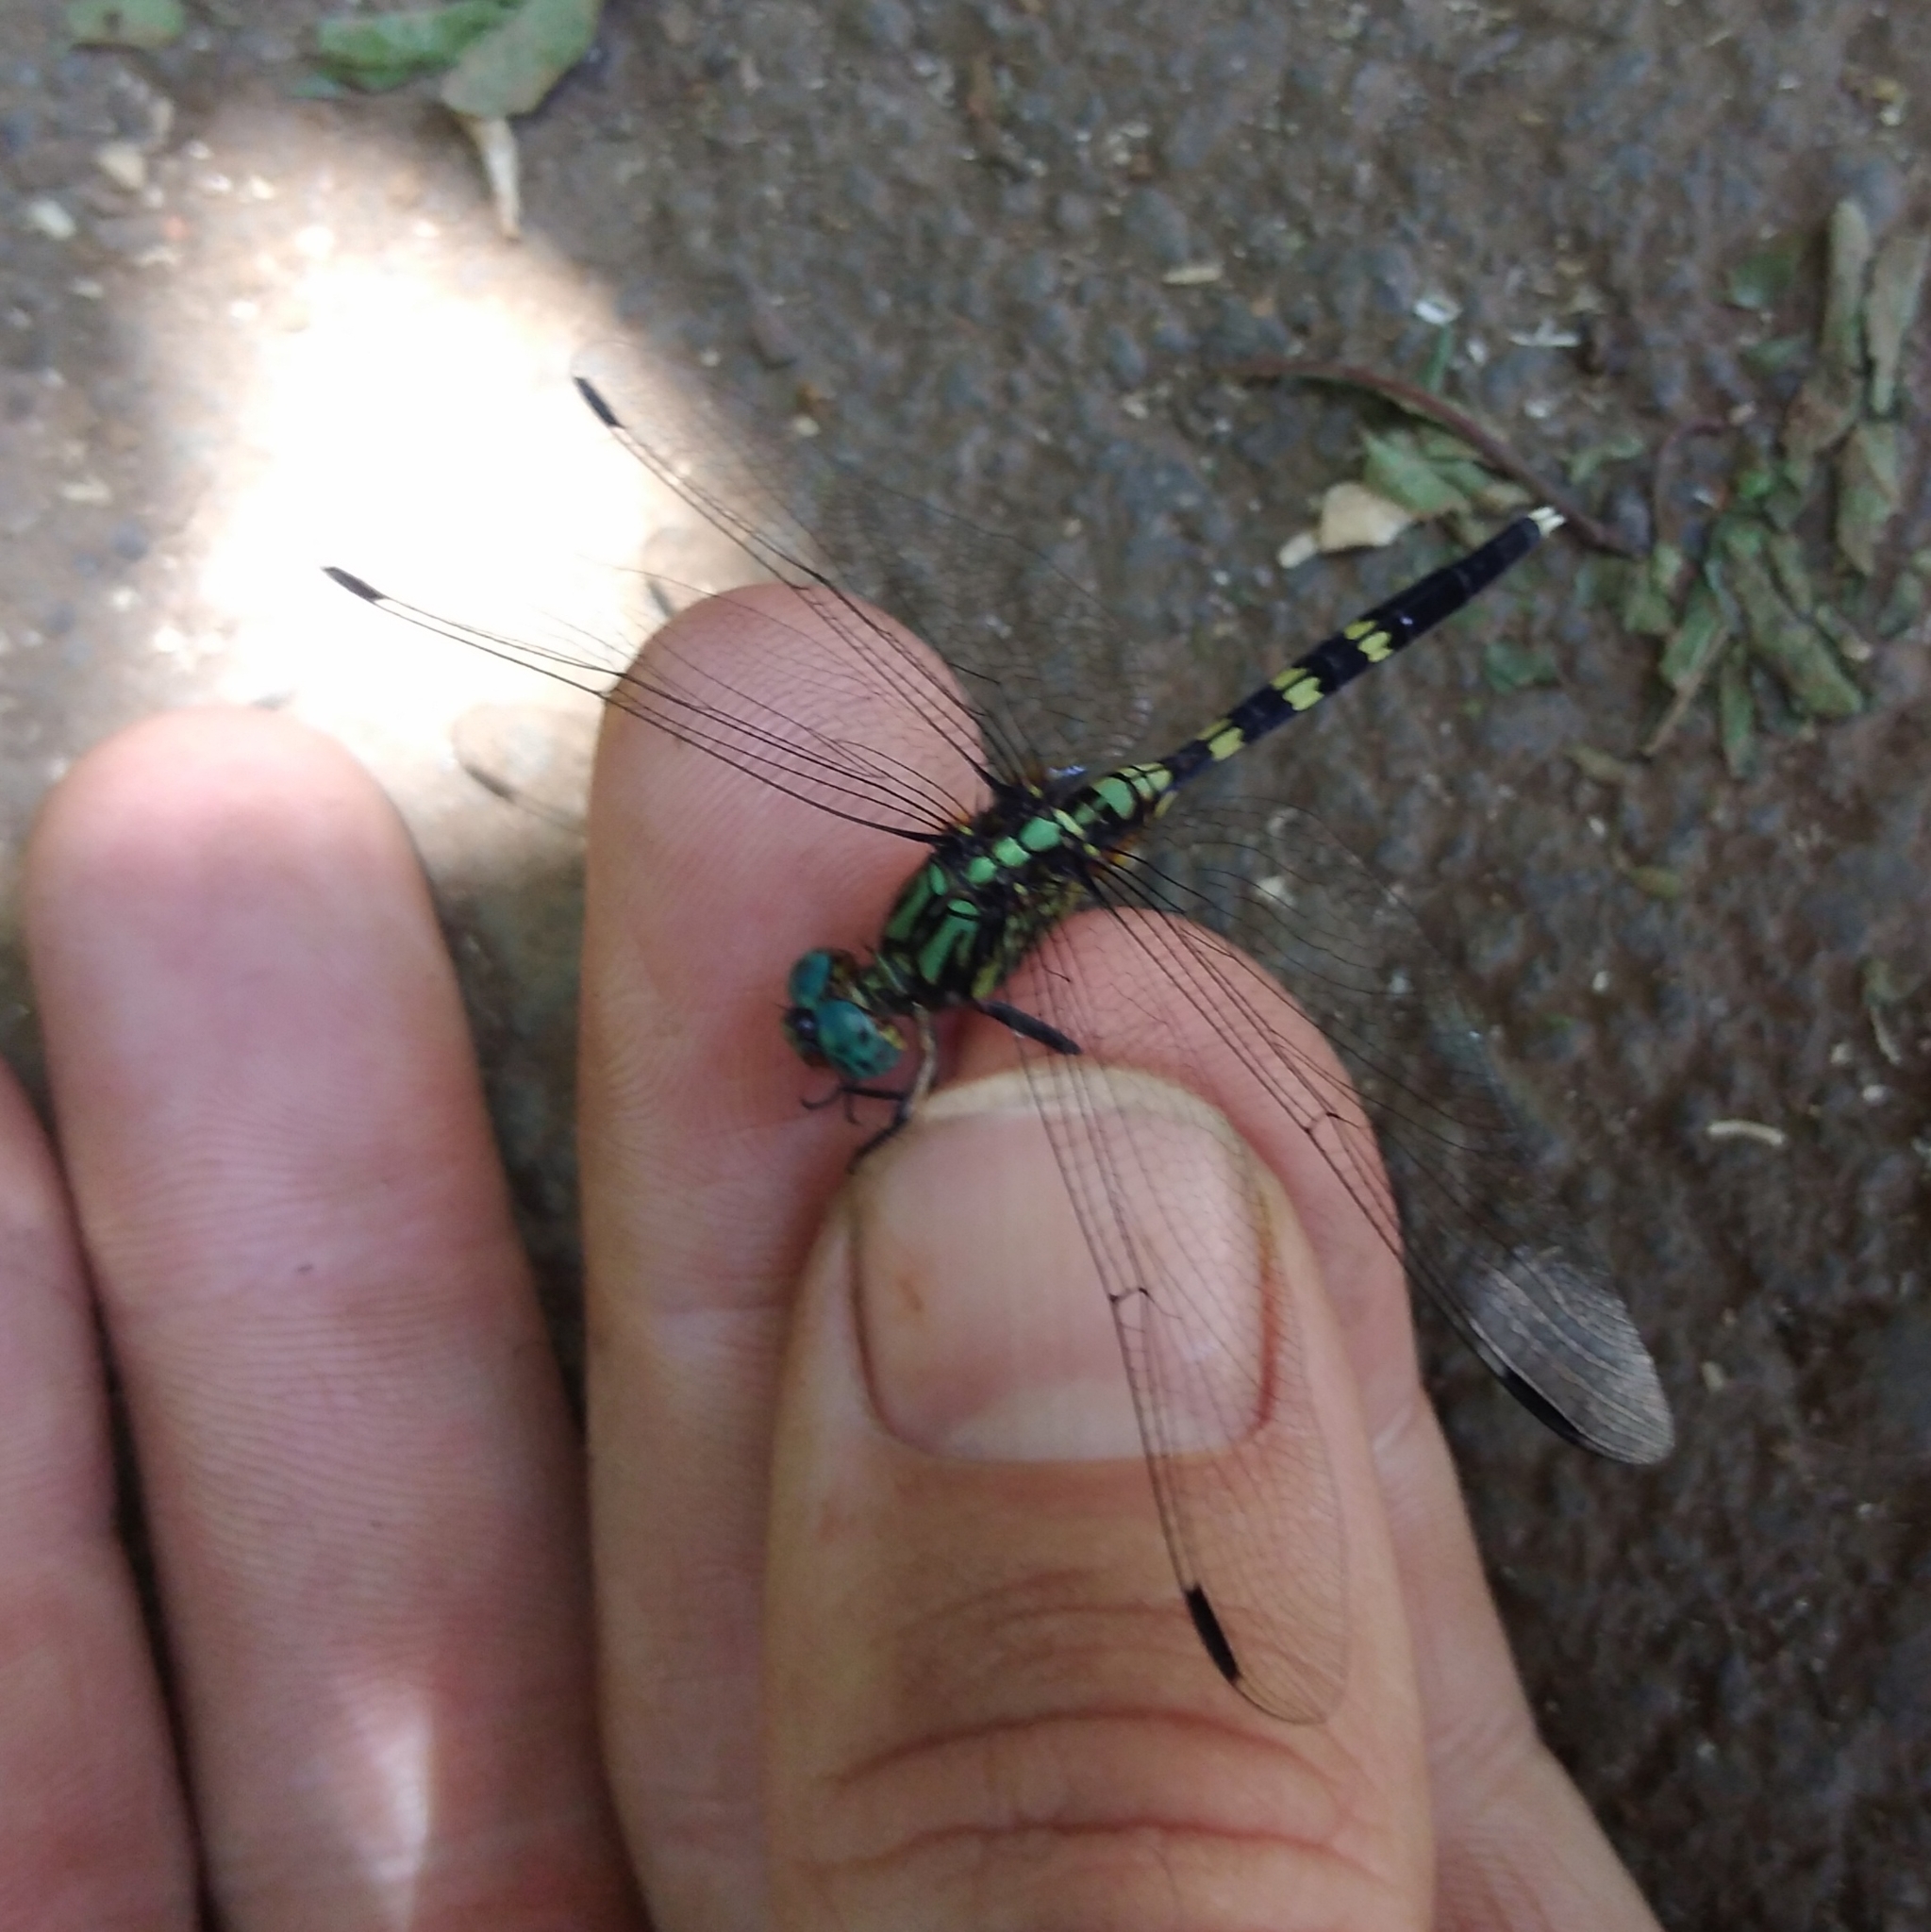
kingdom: Animalia
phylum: Arthropoda
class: Insecta
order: Odonata
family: Libellulidae
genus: Orthetrum
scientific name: Orthetrum julia
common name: Julia skimmer
